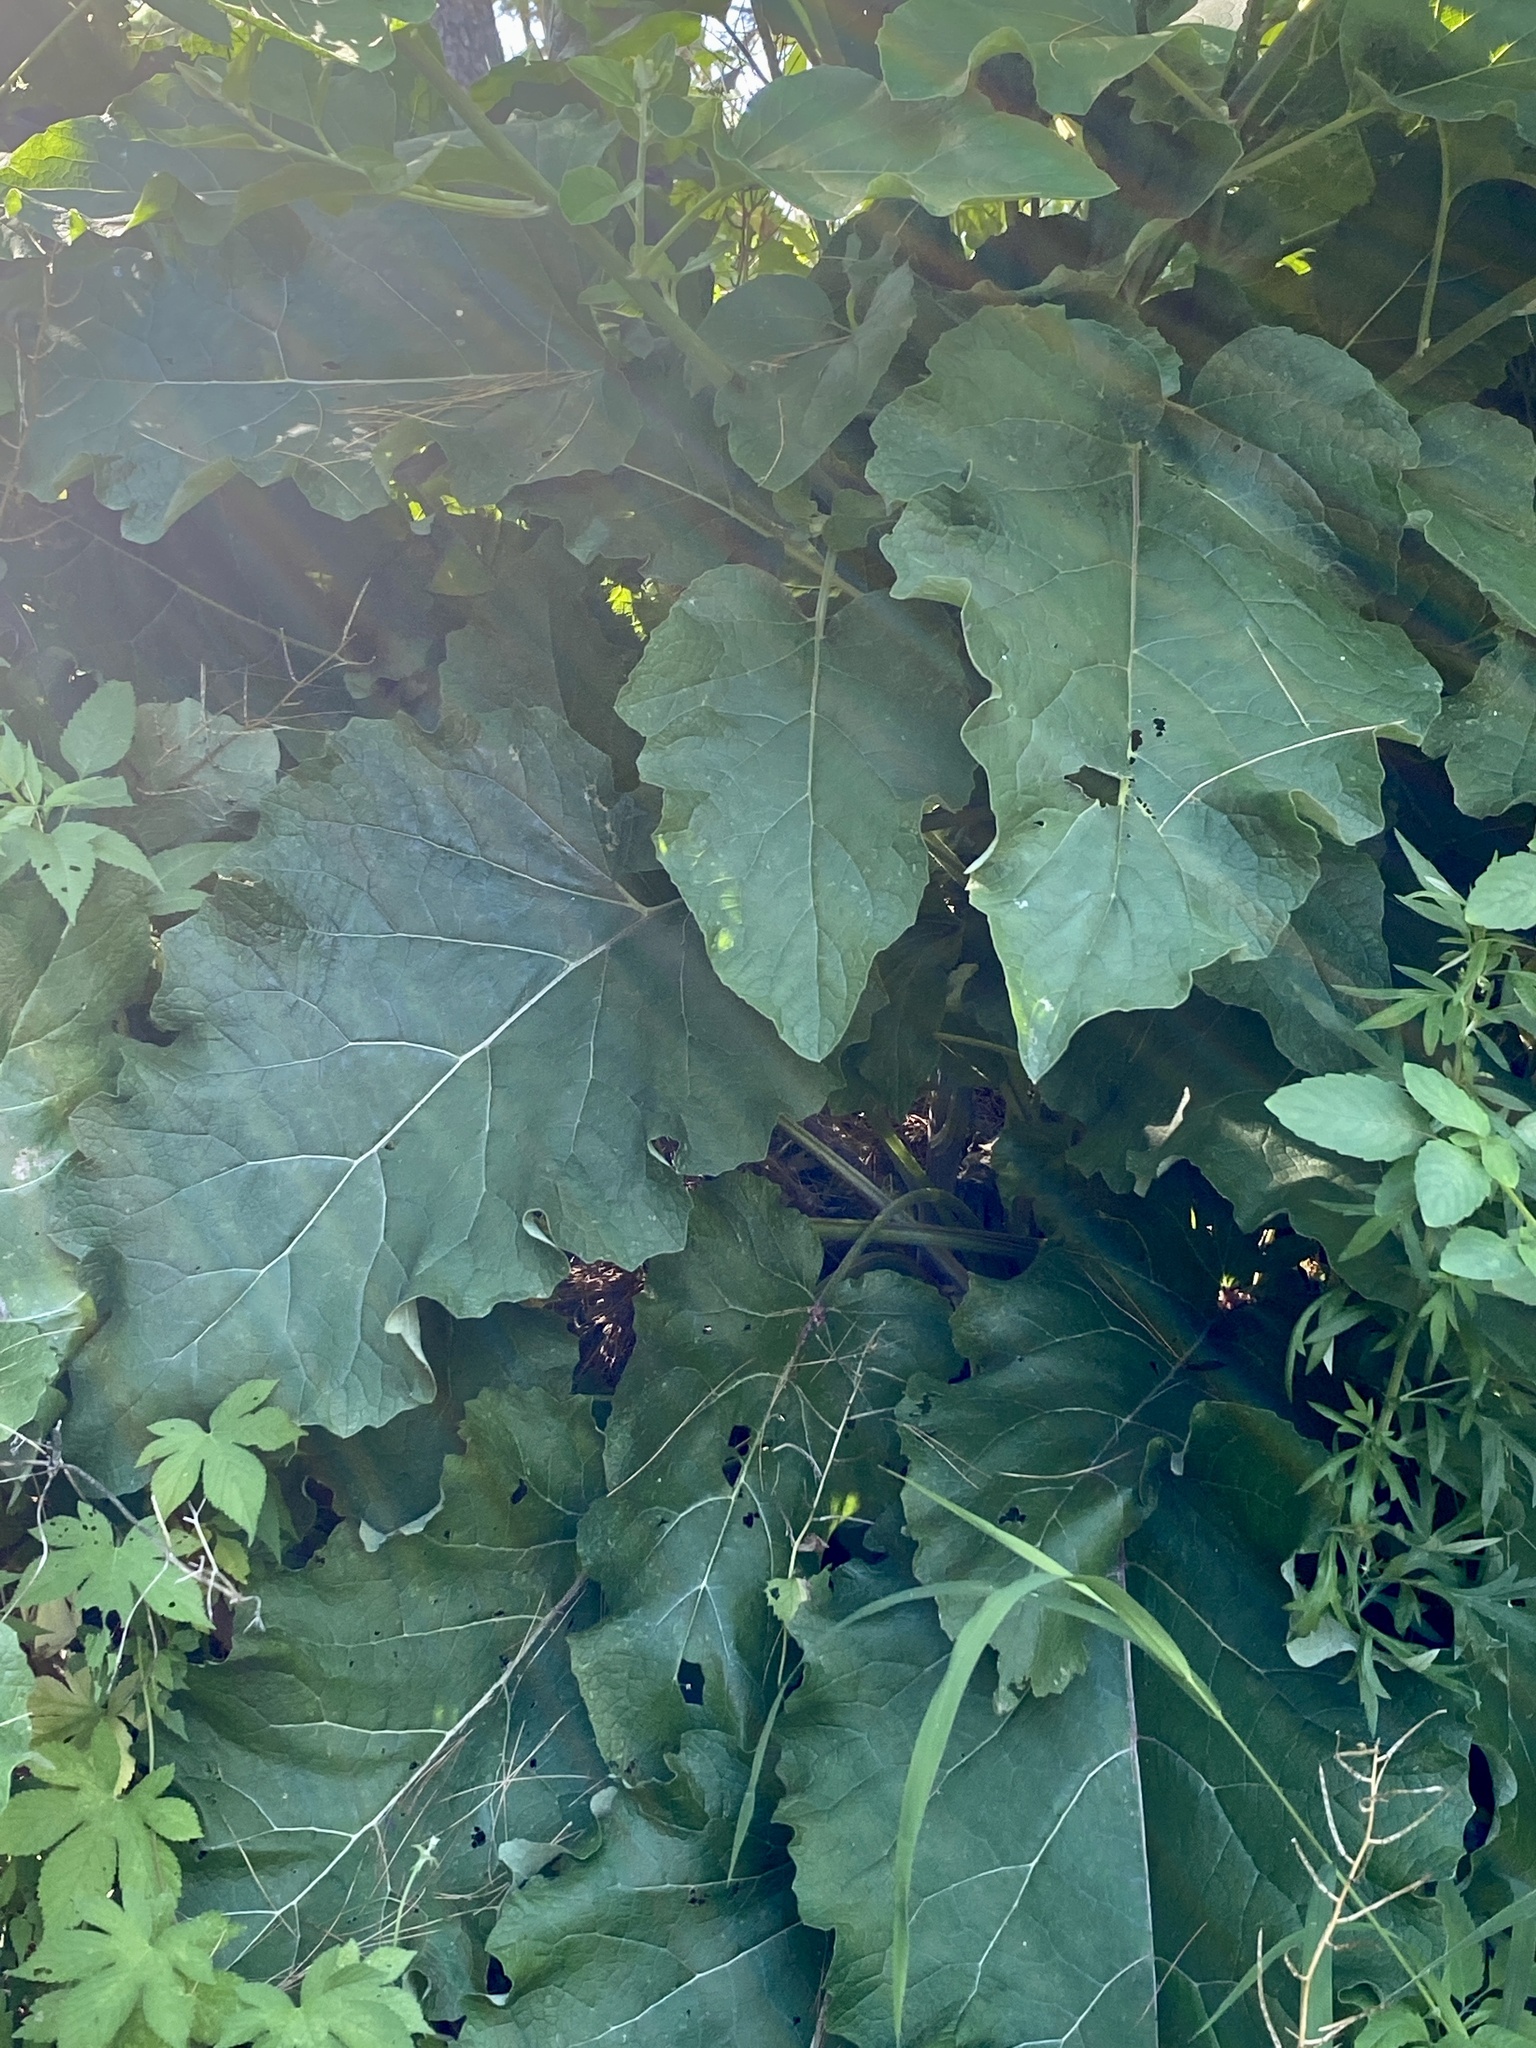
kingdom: Plantae
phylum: Tracheophyta
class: Magnoliopsida
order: Asterales
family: Asteraceae
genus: Arctium
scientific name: Arctium minus
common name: Lesser burdock
